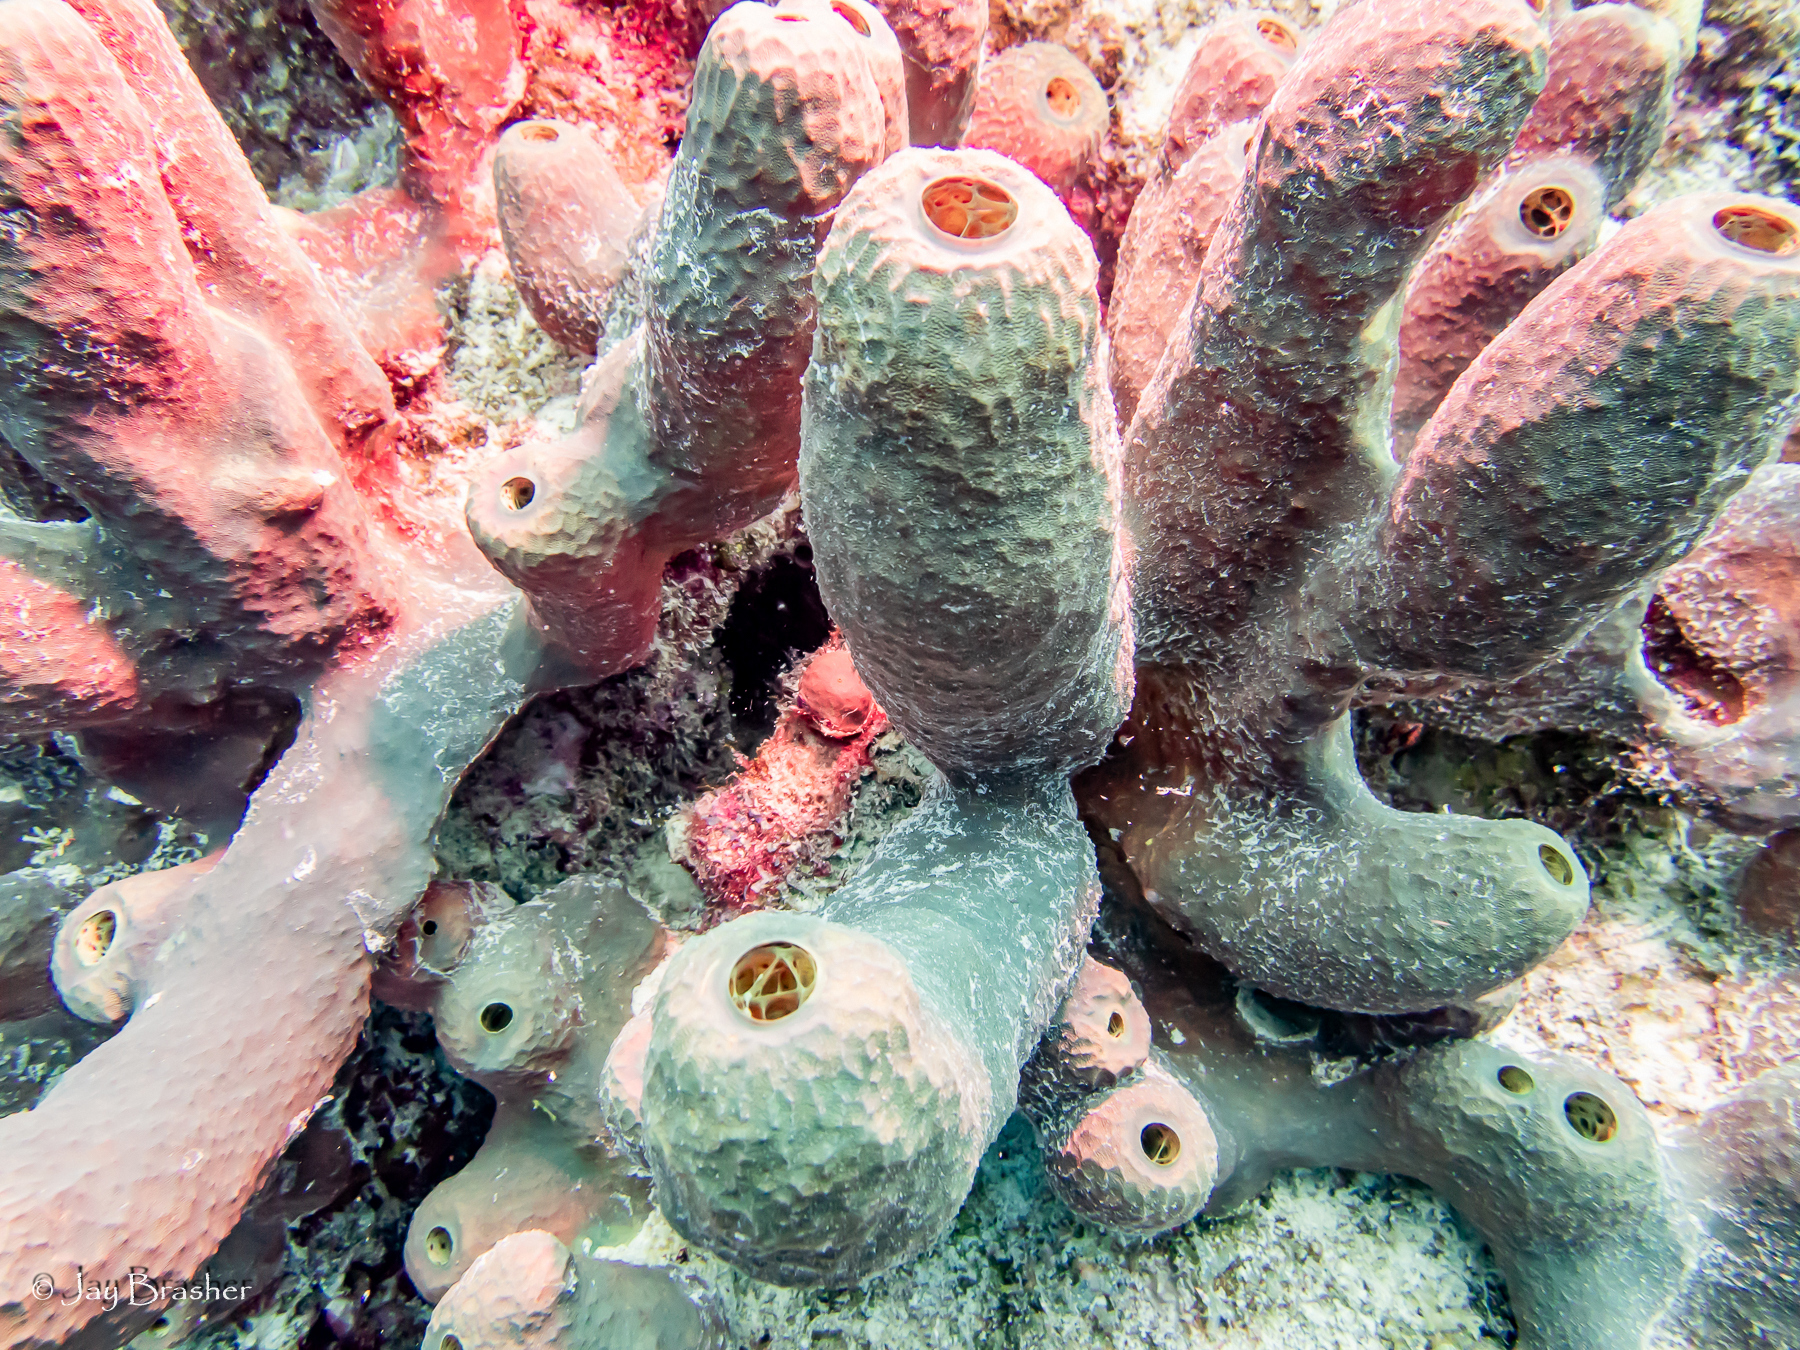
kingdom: Animalia
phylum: Porifera
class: Demospongiae
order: Verongiida
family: Aplysinidae
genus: Verongula
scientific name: Verongula rigida
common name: Pitted sponge
